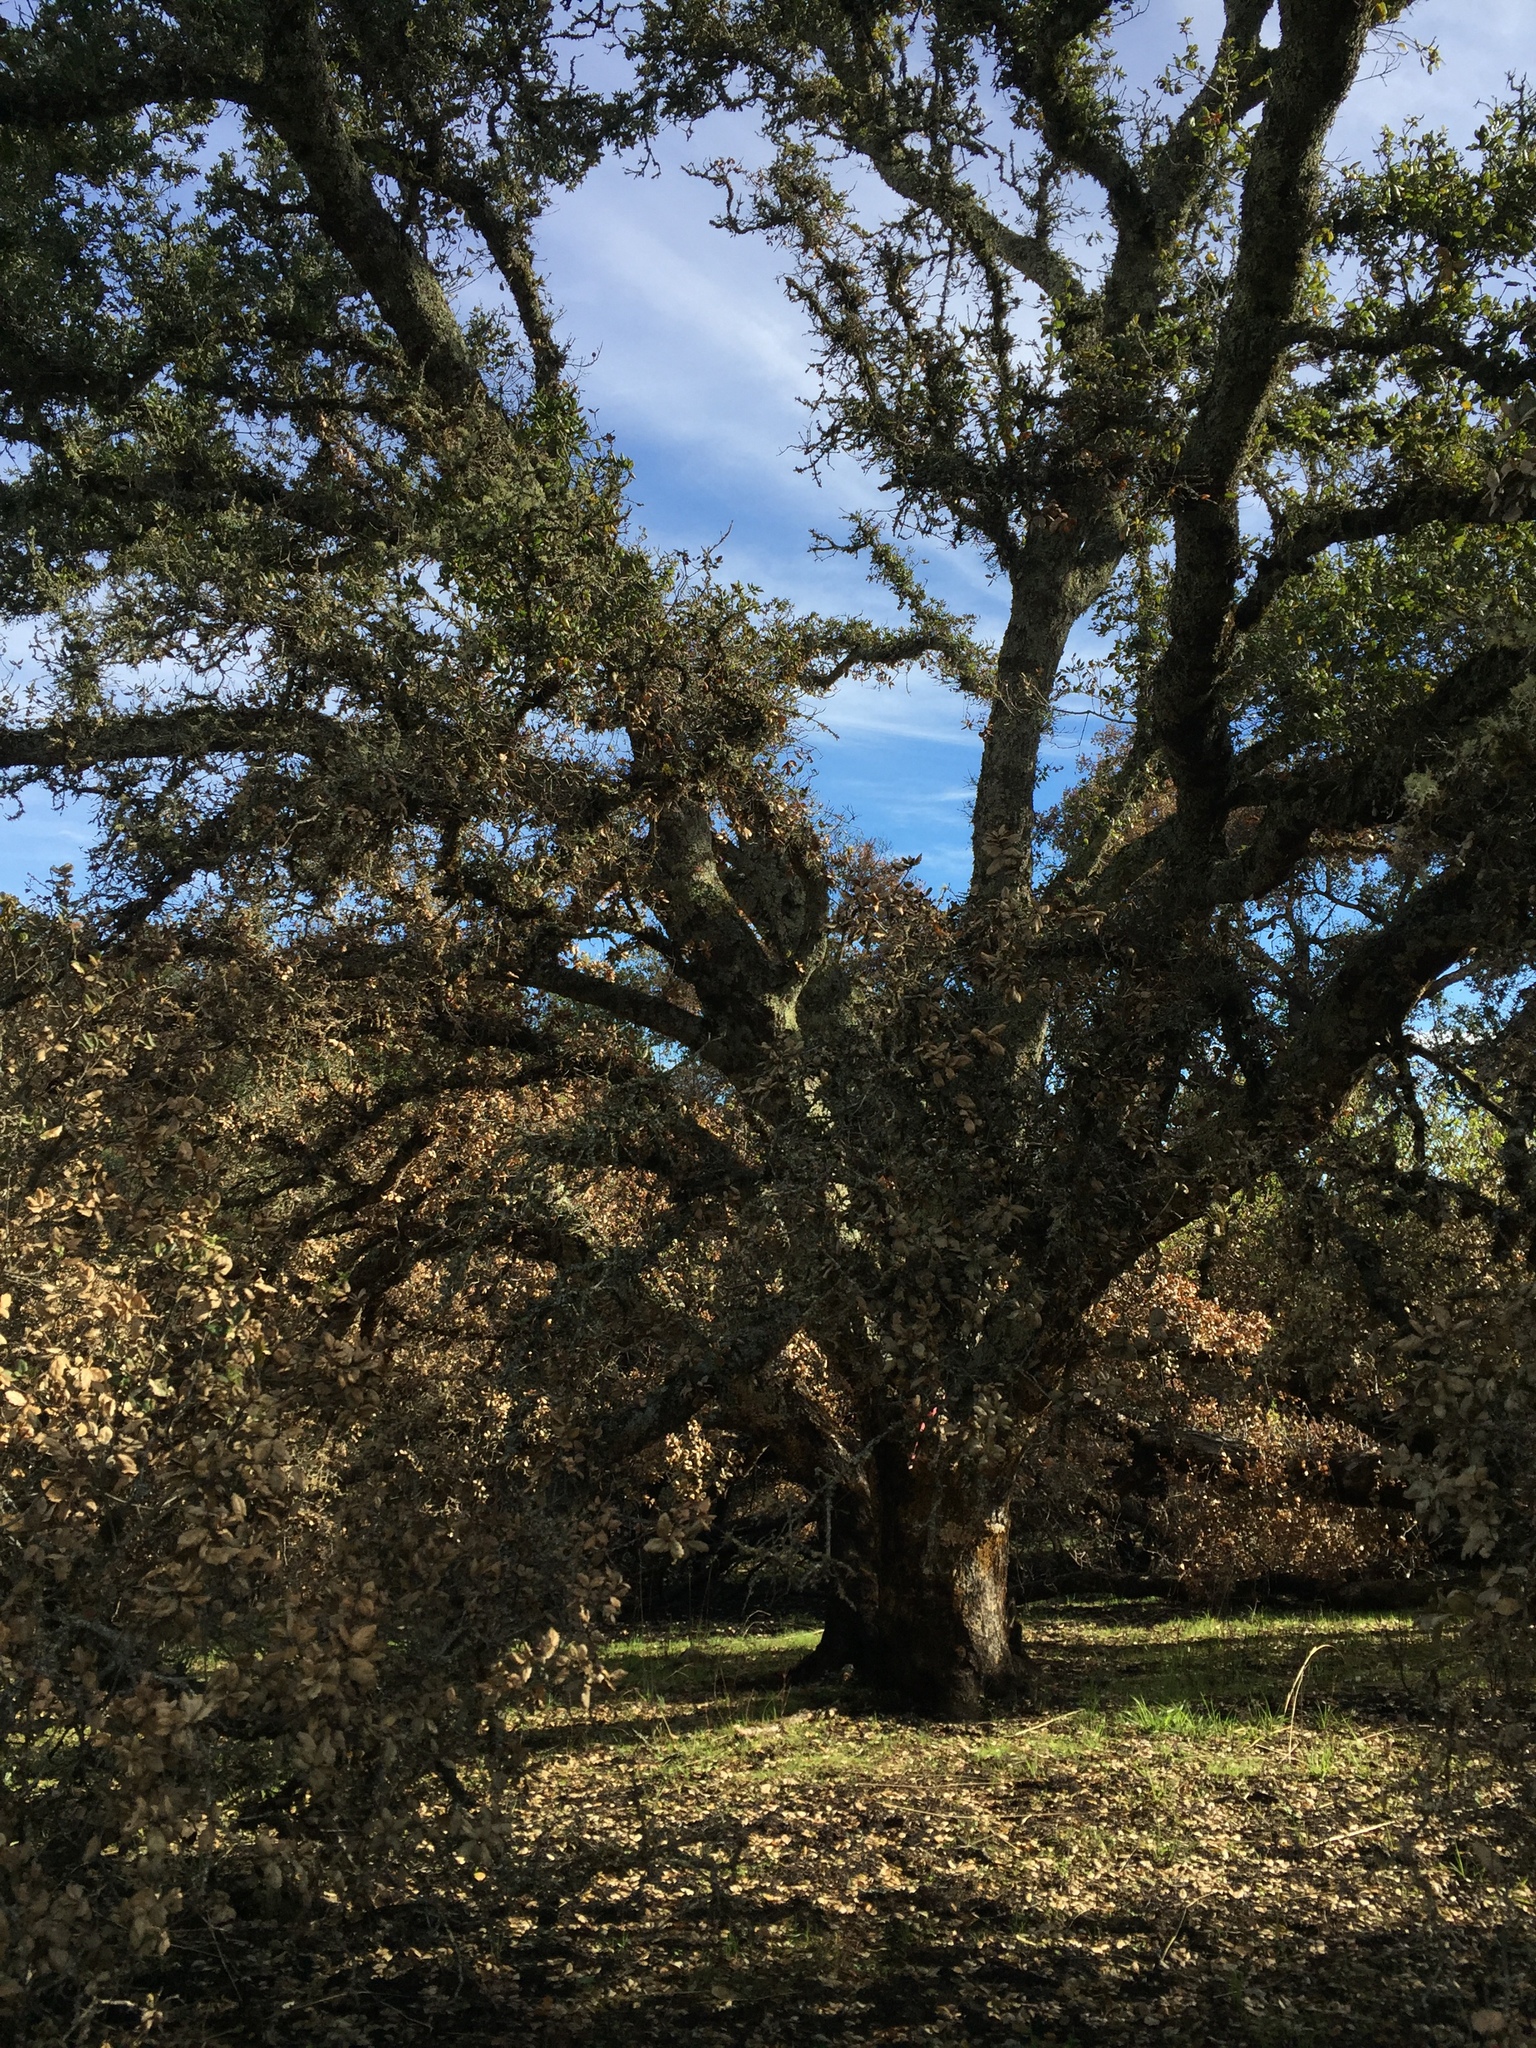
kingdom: Plantae
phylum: Tracheophyta
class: Magnoliopsida
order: Fagales
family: Fagaceae
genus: Quercus
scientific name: Quercus agrifolia
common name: California live oak
